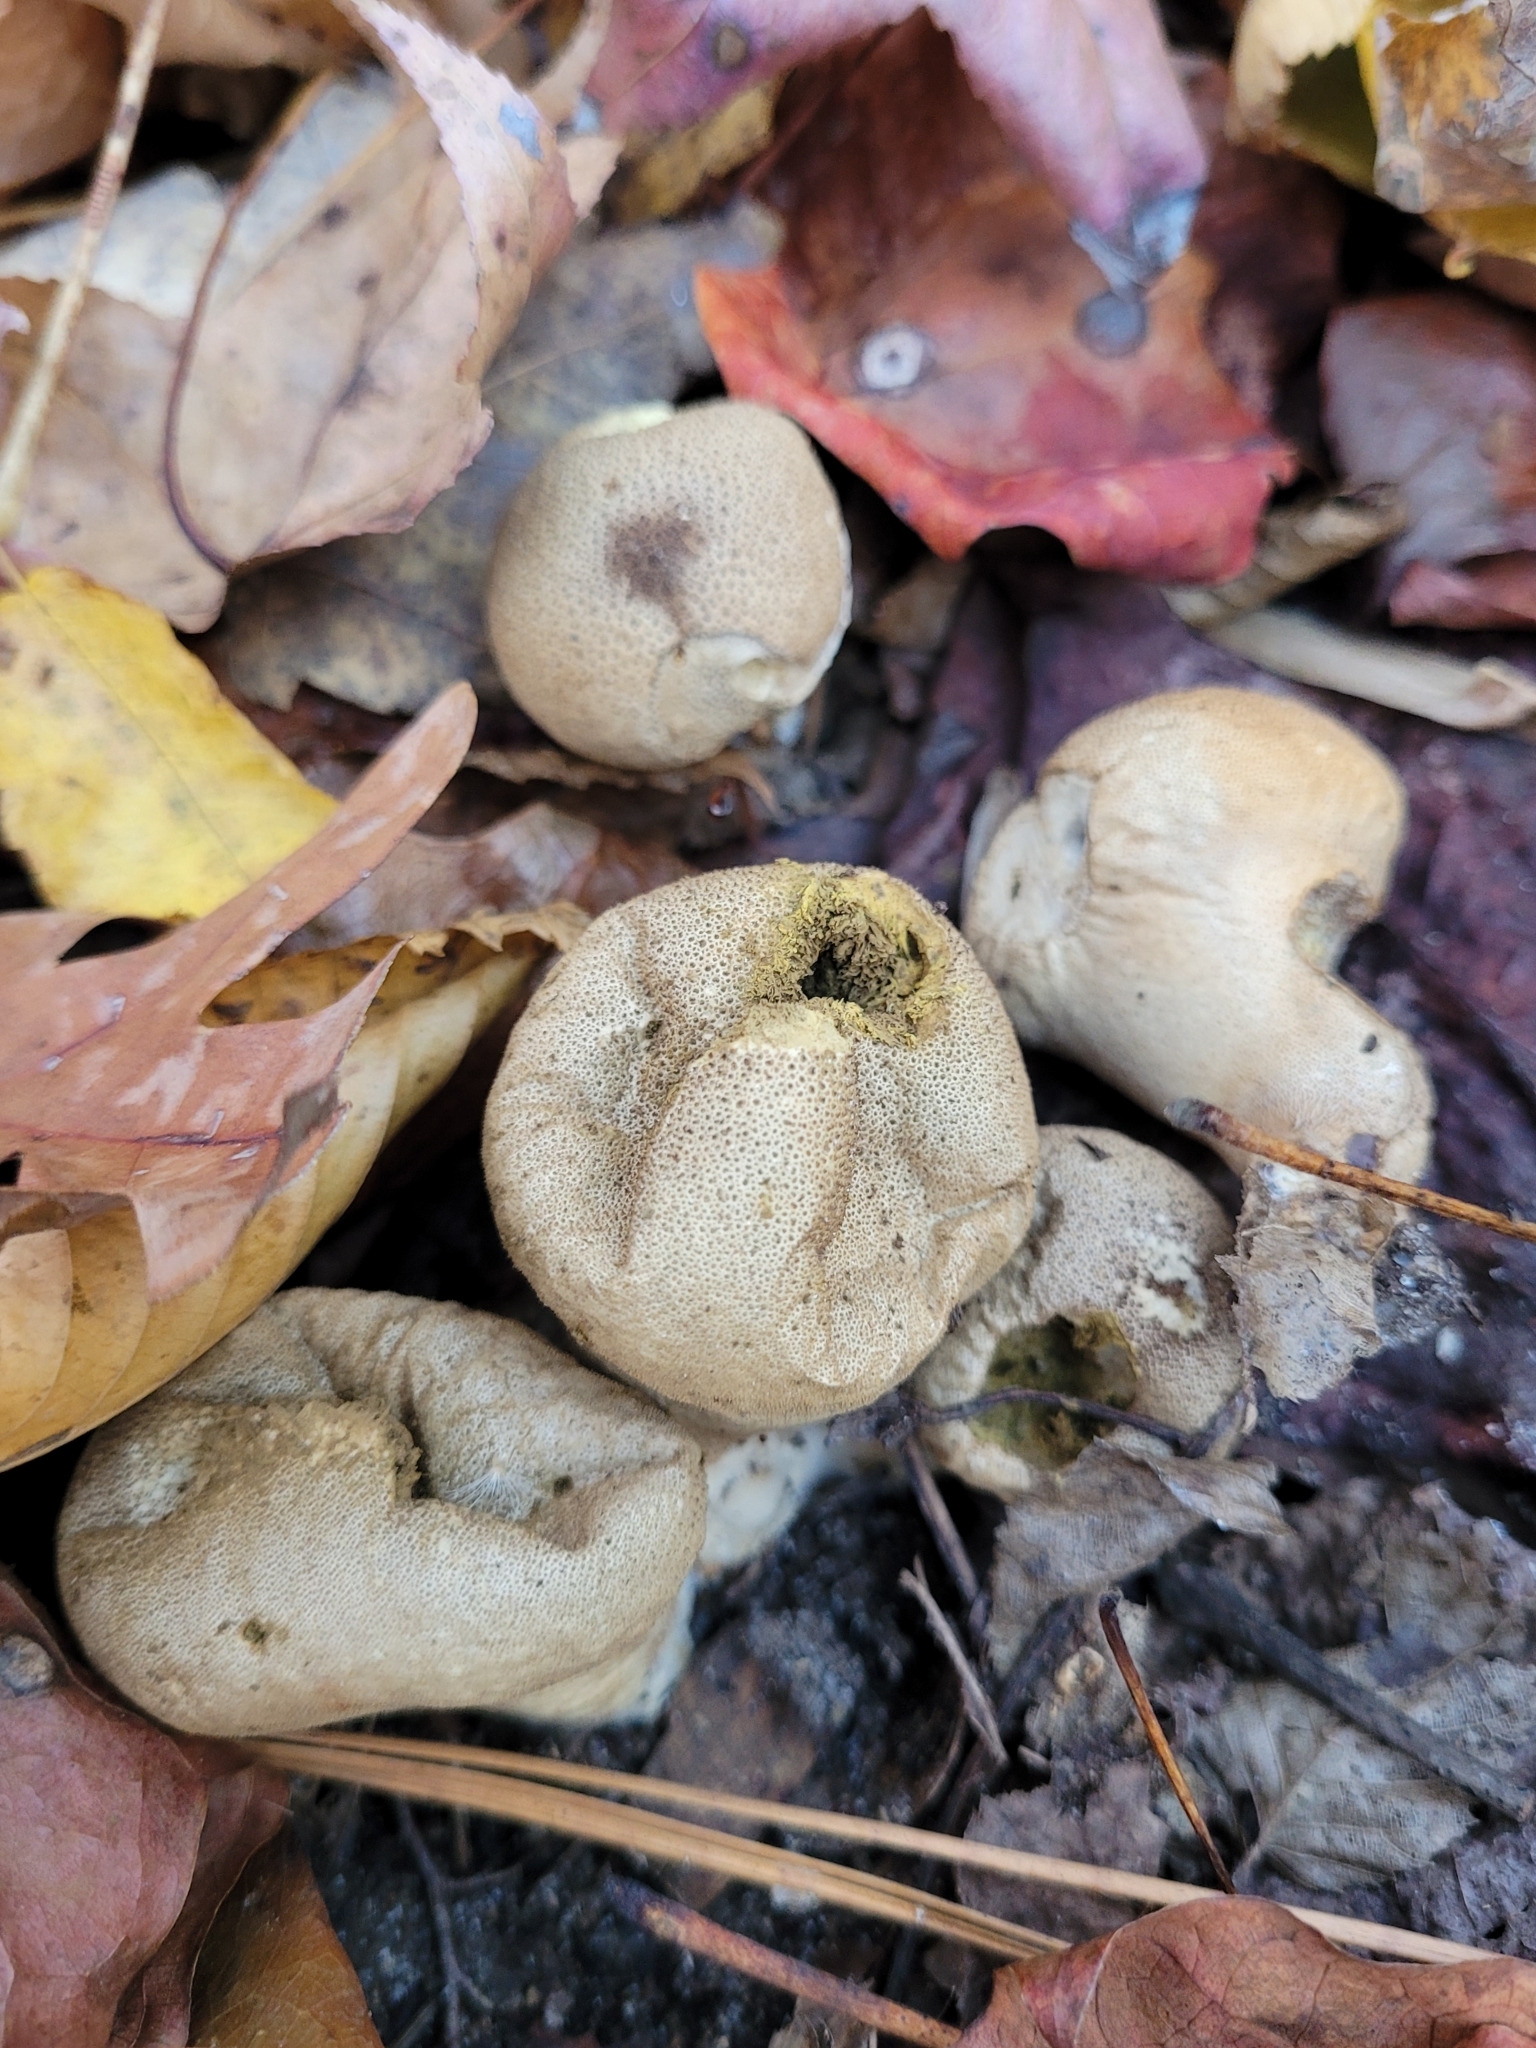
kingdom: Fungi
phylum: Basidiomycota
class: Agaricomycetes
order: Agaricales
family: Lycoperdaceae
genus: Apioperdon
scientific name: Apioperdon pyriforme
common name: Pear-shaped puffball
